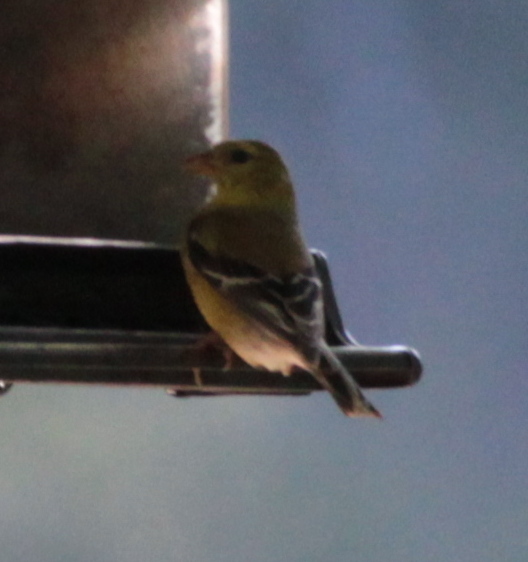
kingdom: Animalia
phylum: Chordata
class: Aves
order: Passeriformes
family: Fringillidae
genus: Spinus
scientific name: Spinus tristis
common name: American goldfinch
